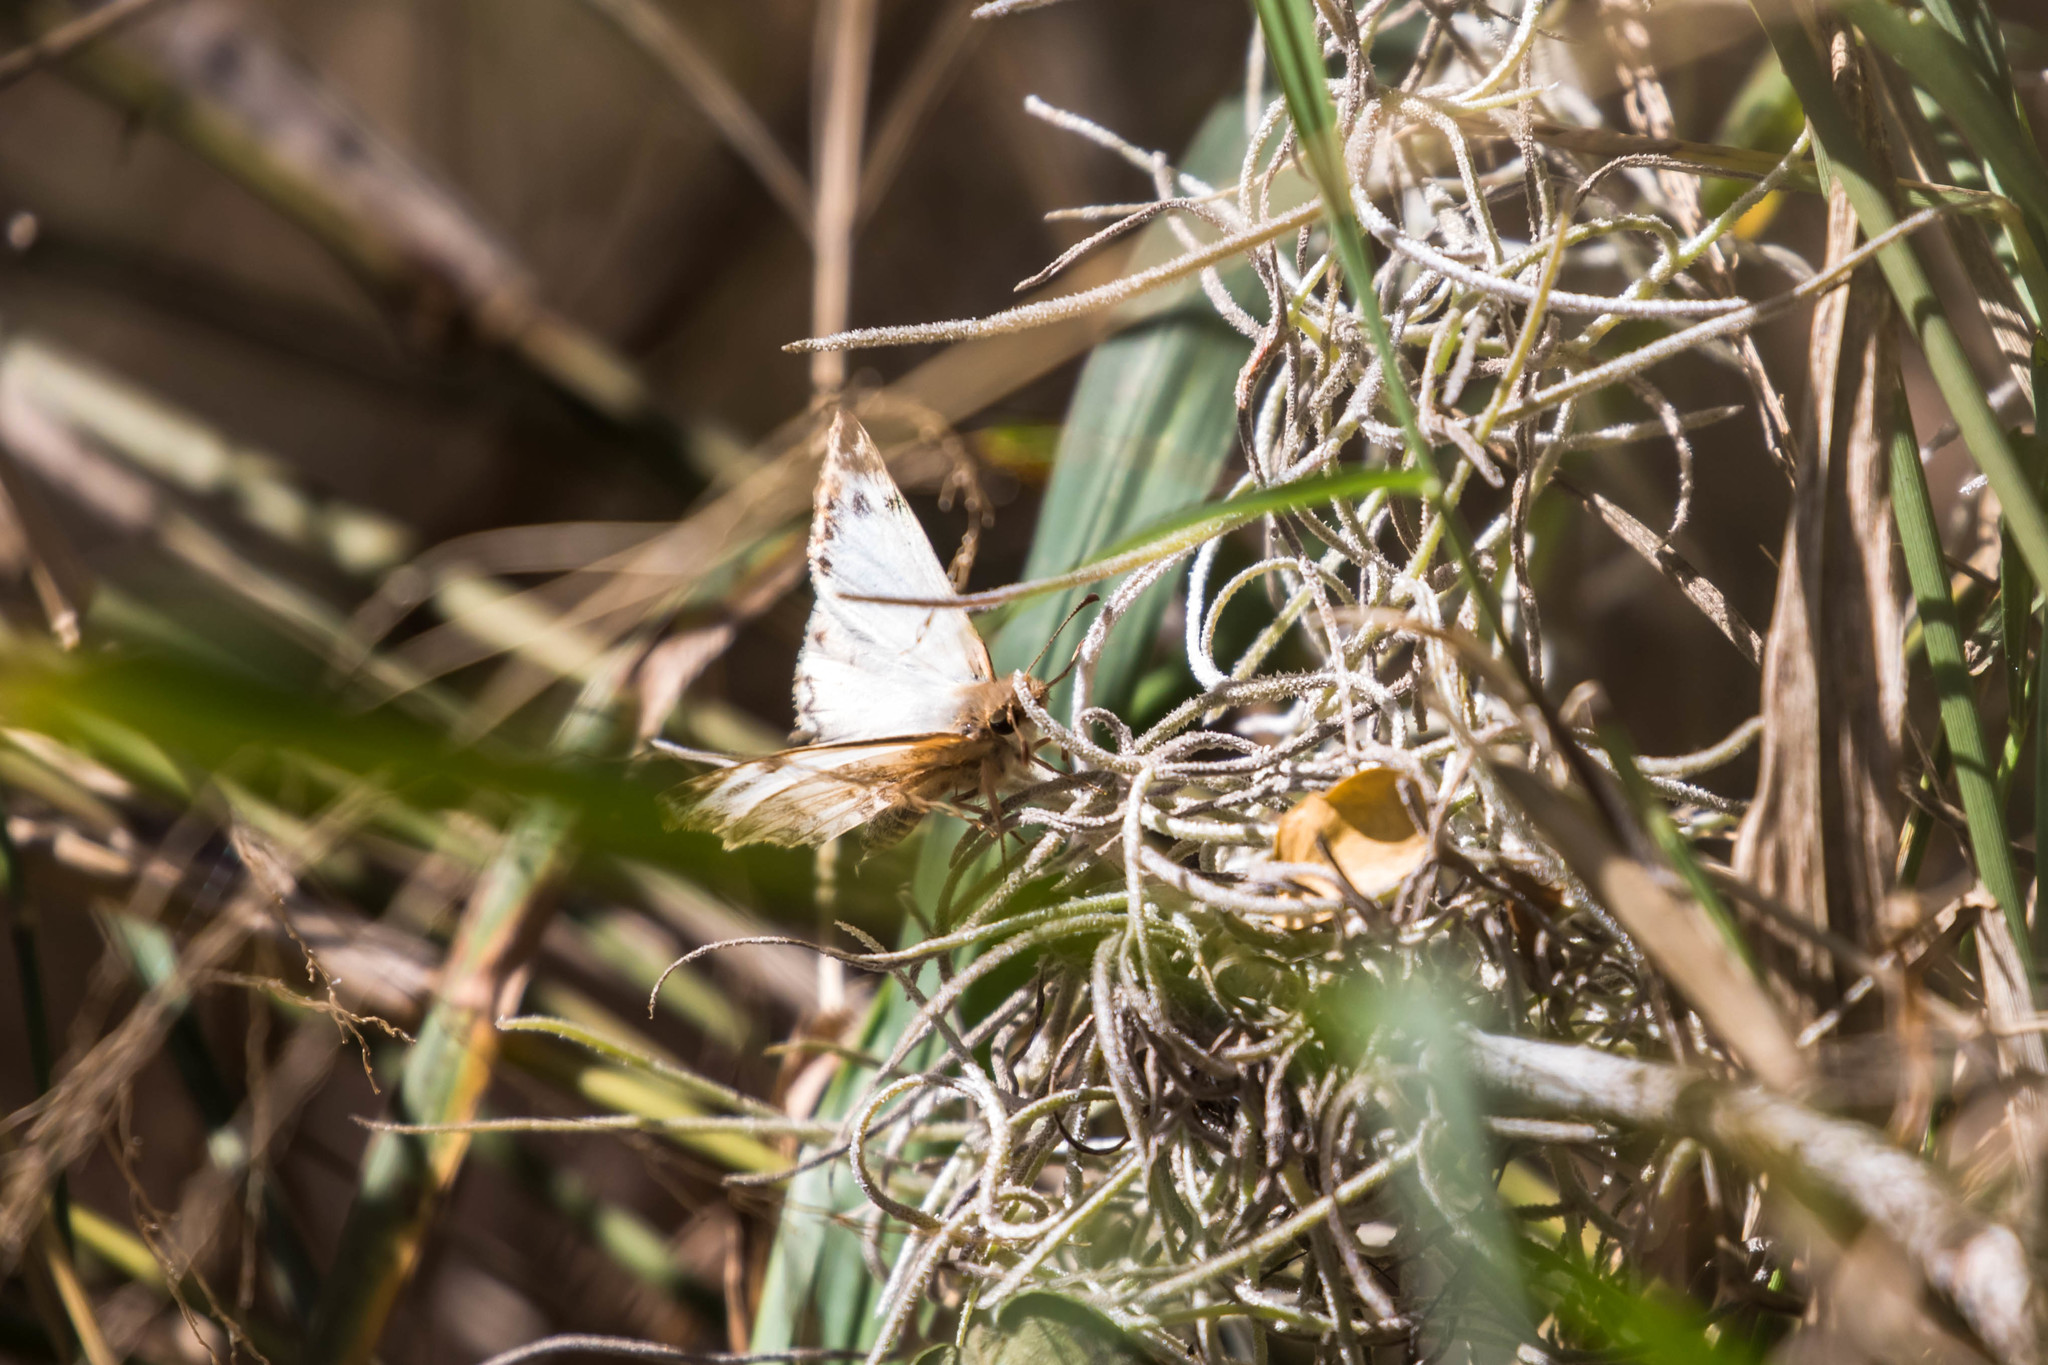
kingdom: Animalia
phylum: Arthropoda
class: Insecta
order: Lepidoptera
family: Hesperiidae
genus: Heliopetes
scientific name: Heliopetes laviana
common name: Laviana white-skipper
